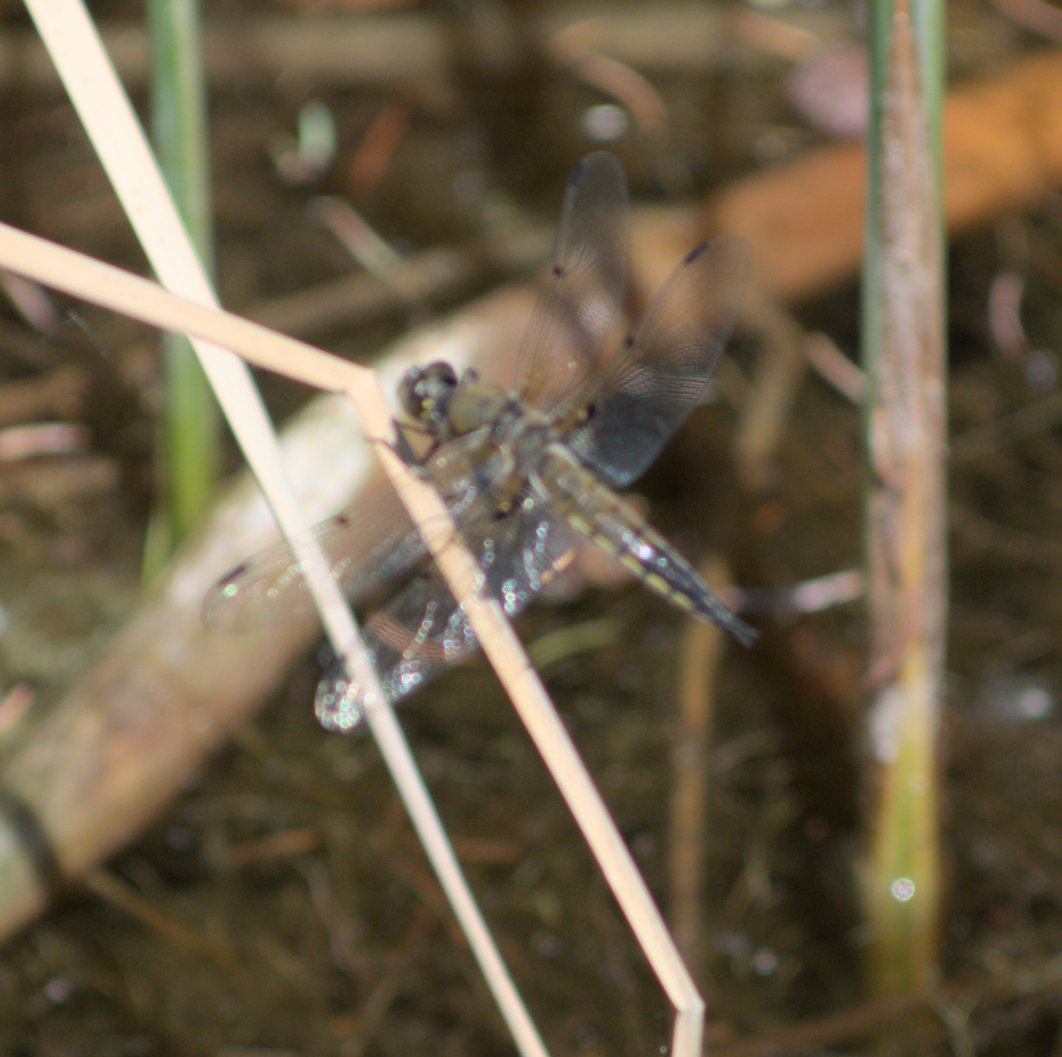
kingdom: Animalia
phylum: Arthropoda
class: Insecta
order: Odonata
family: Libellulidae
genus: Libellula
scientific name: Libellula quadrimaculata
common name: Four-spotted chaser
